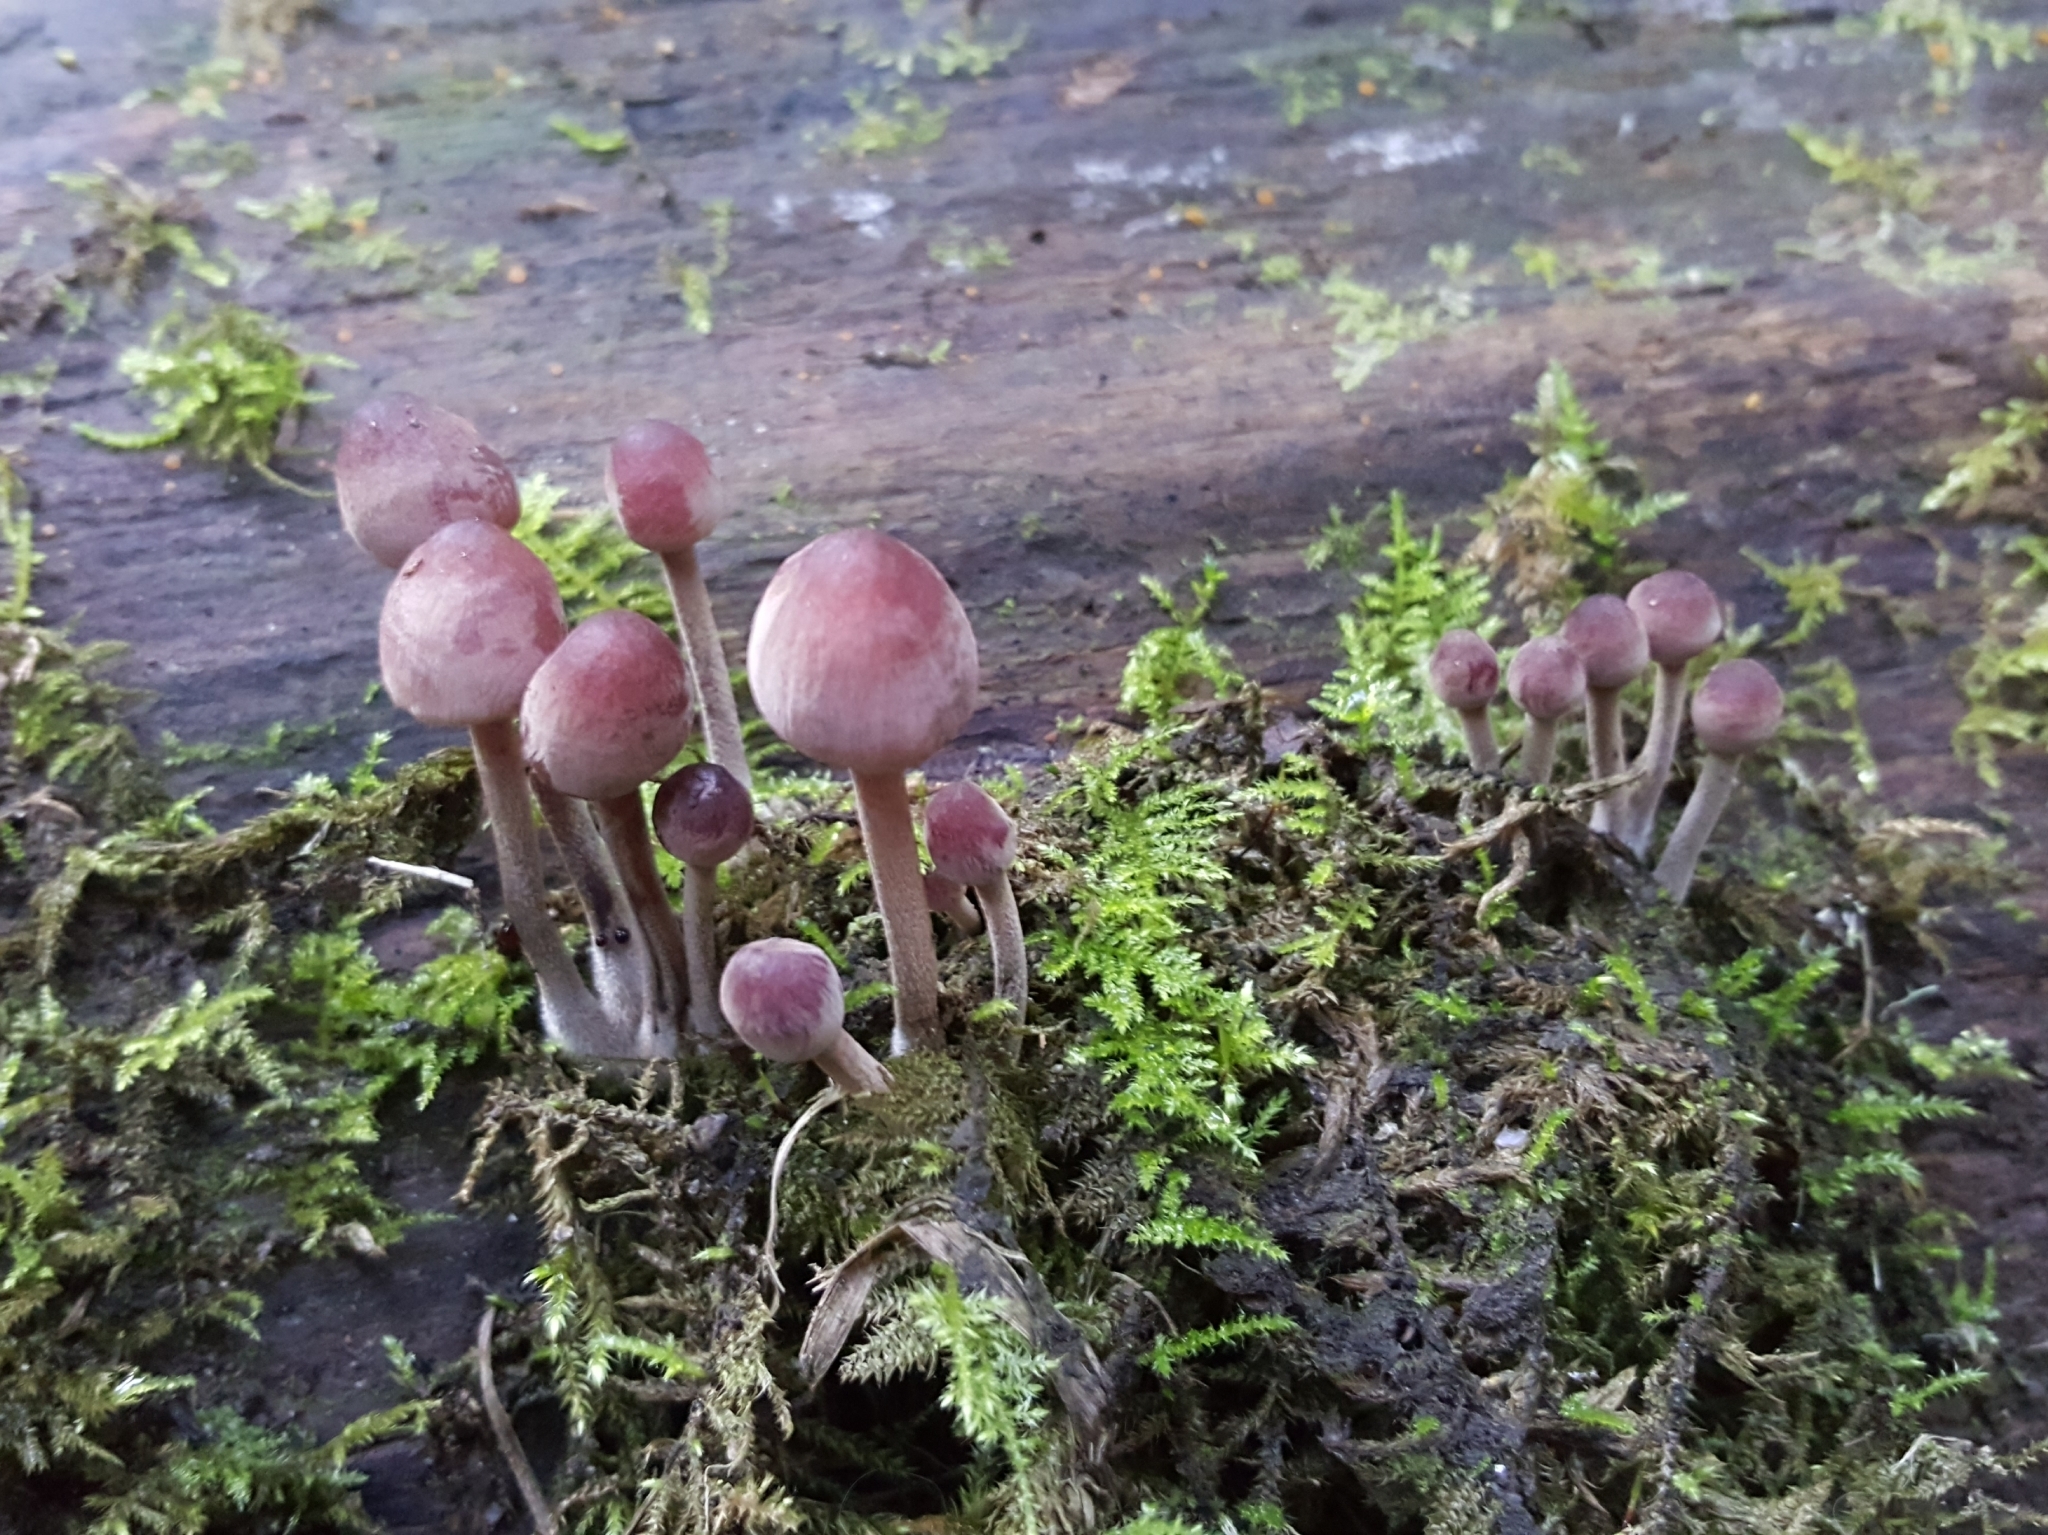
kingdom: Fungi
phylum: Basidiomycota
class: Agaricomycetes
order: Agaricales
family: Mycenaceae
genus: Mycena
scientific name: Mycena haematopus
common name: Burgundydrop bonnet
